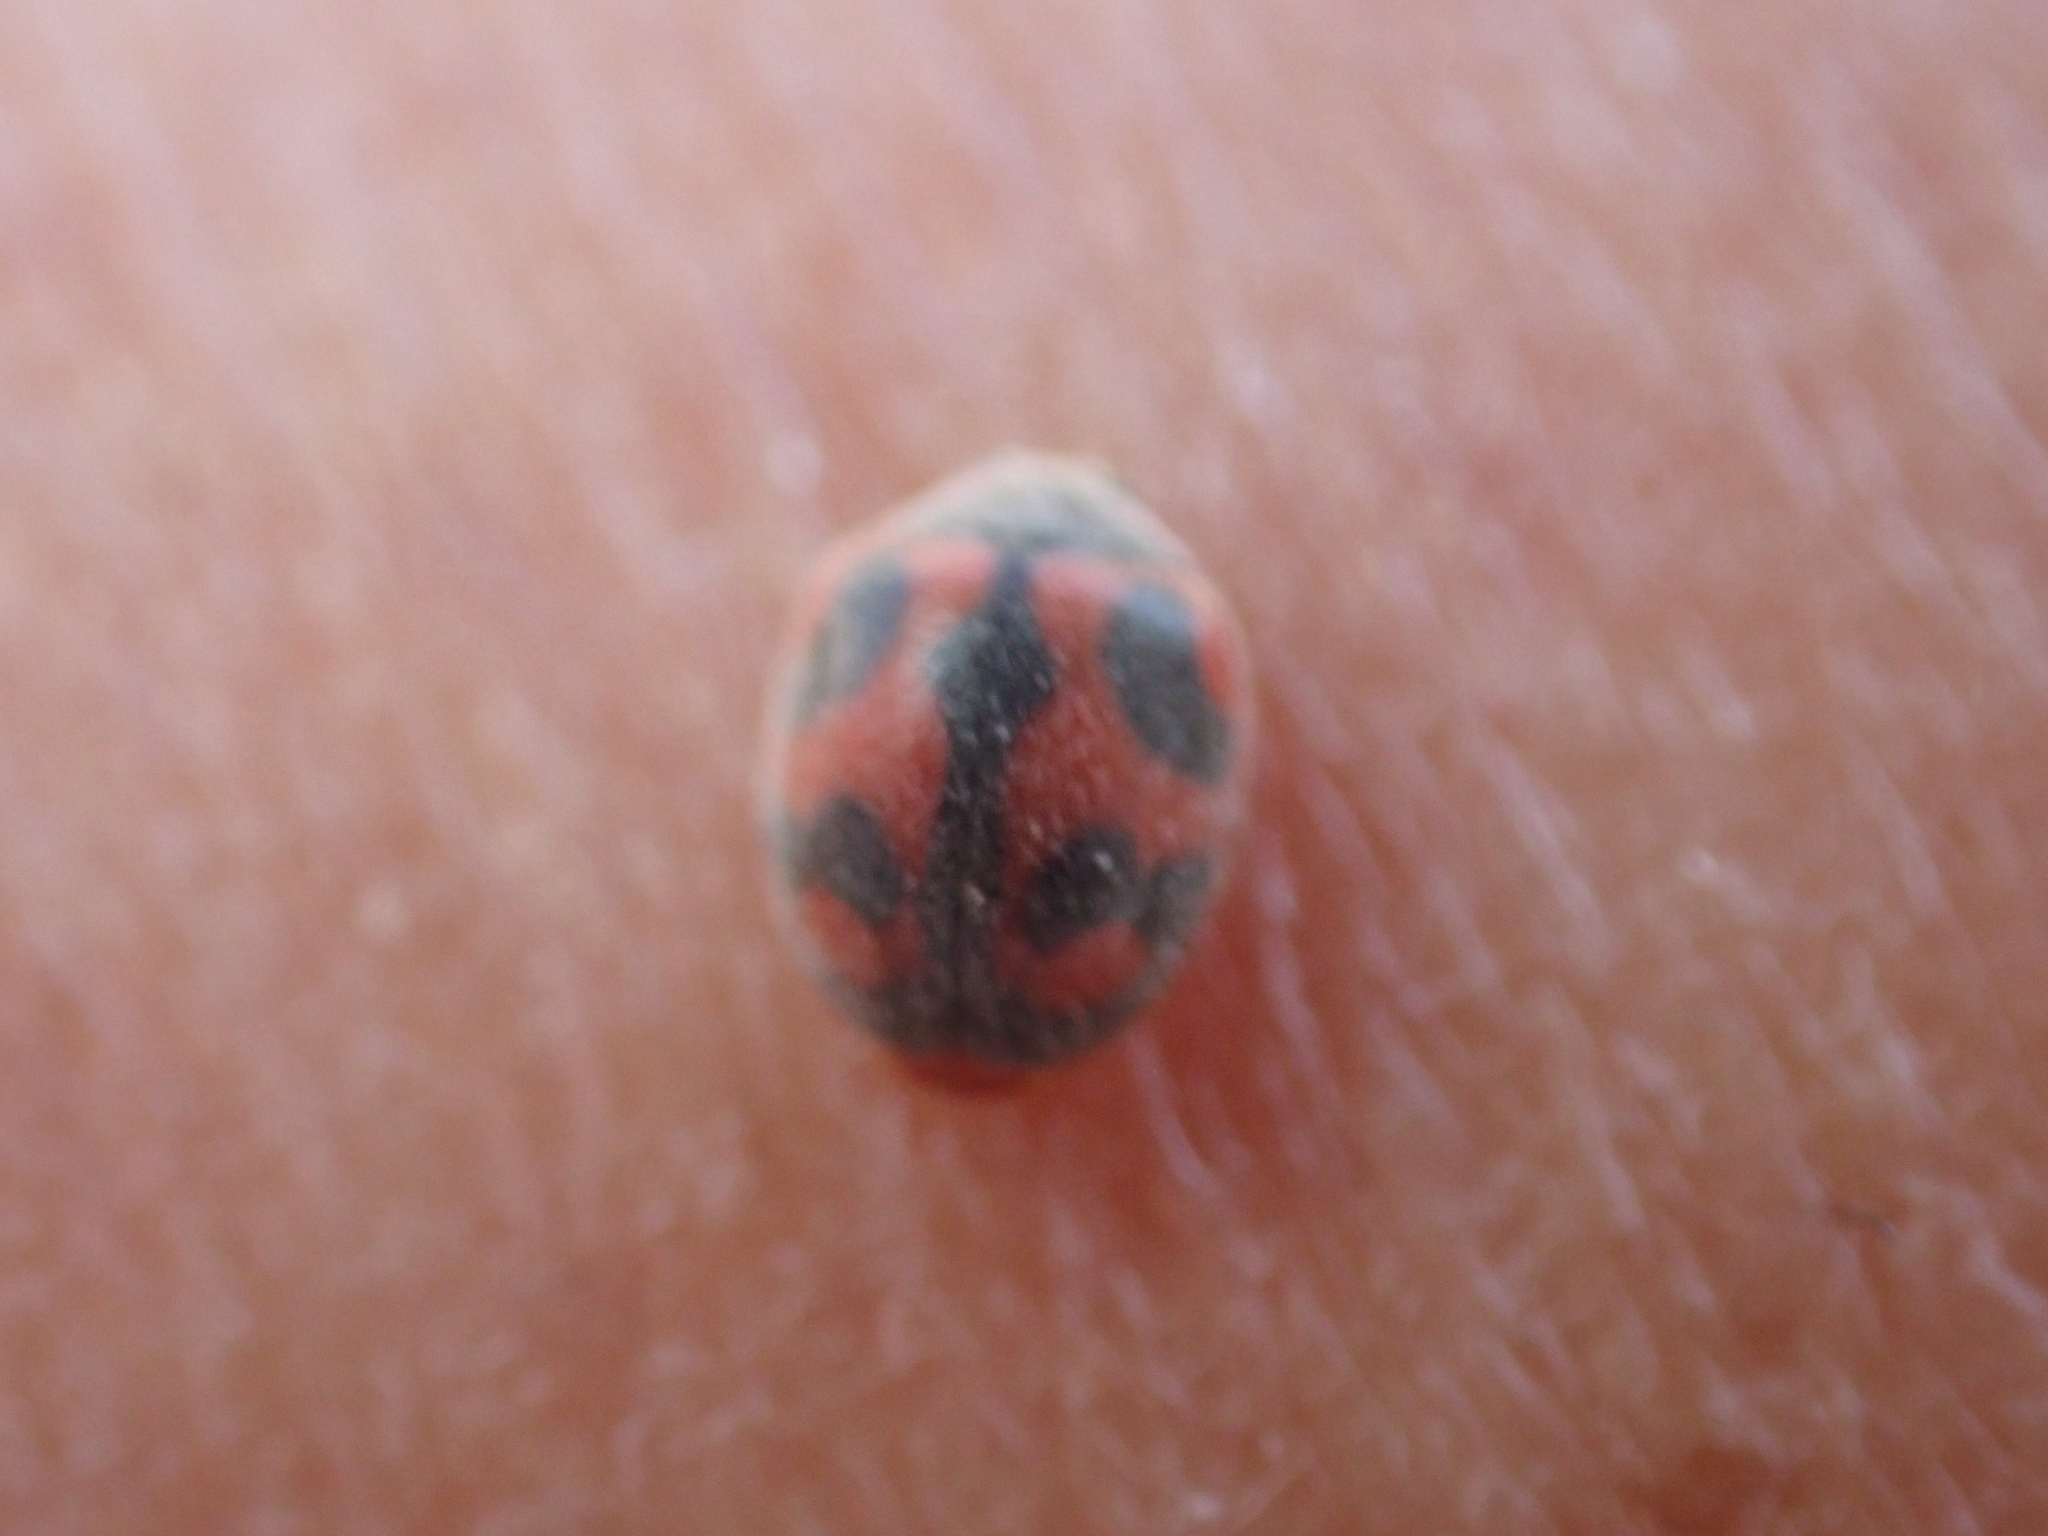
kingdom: Animalia
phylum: Arthropoda
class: Insecta
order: Coleoptera
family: Coccinellidae
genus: Novius
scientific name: Novius cardinalis
